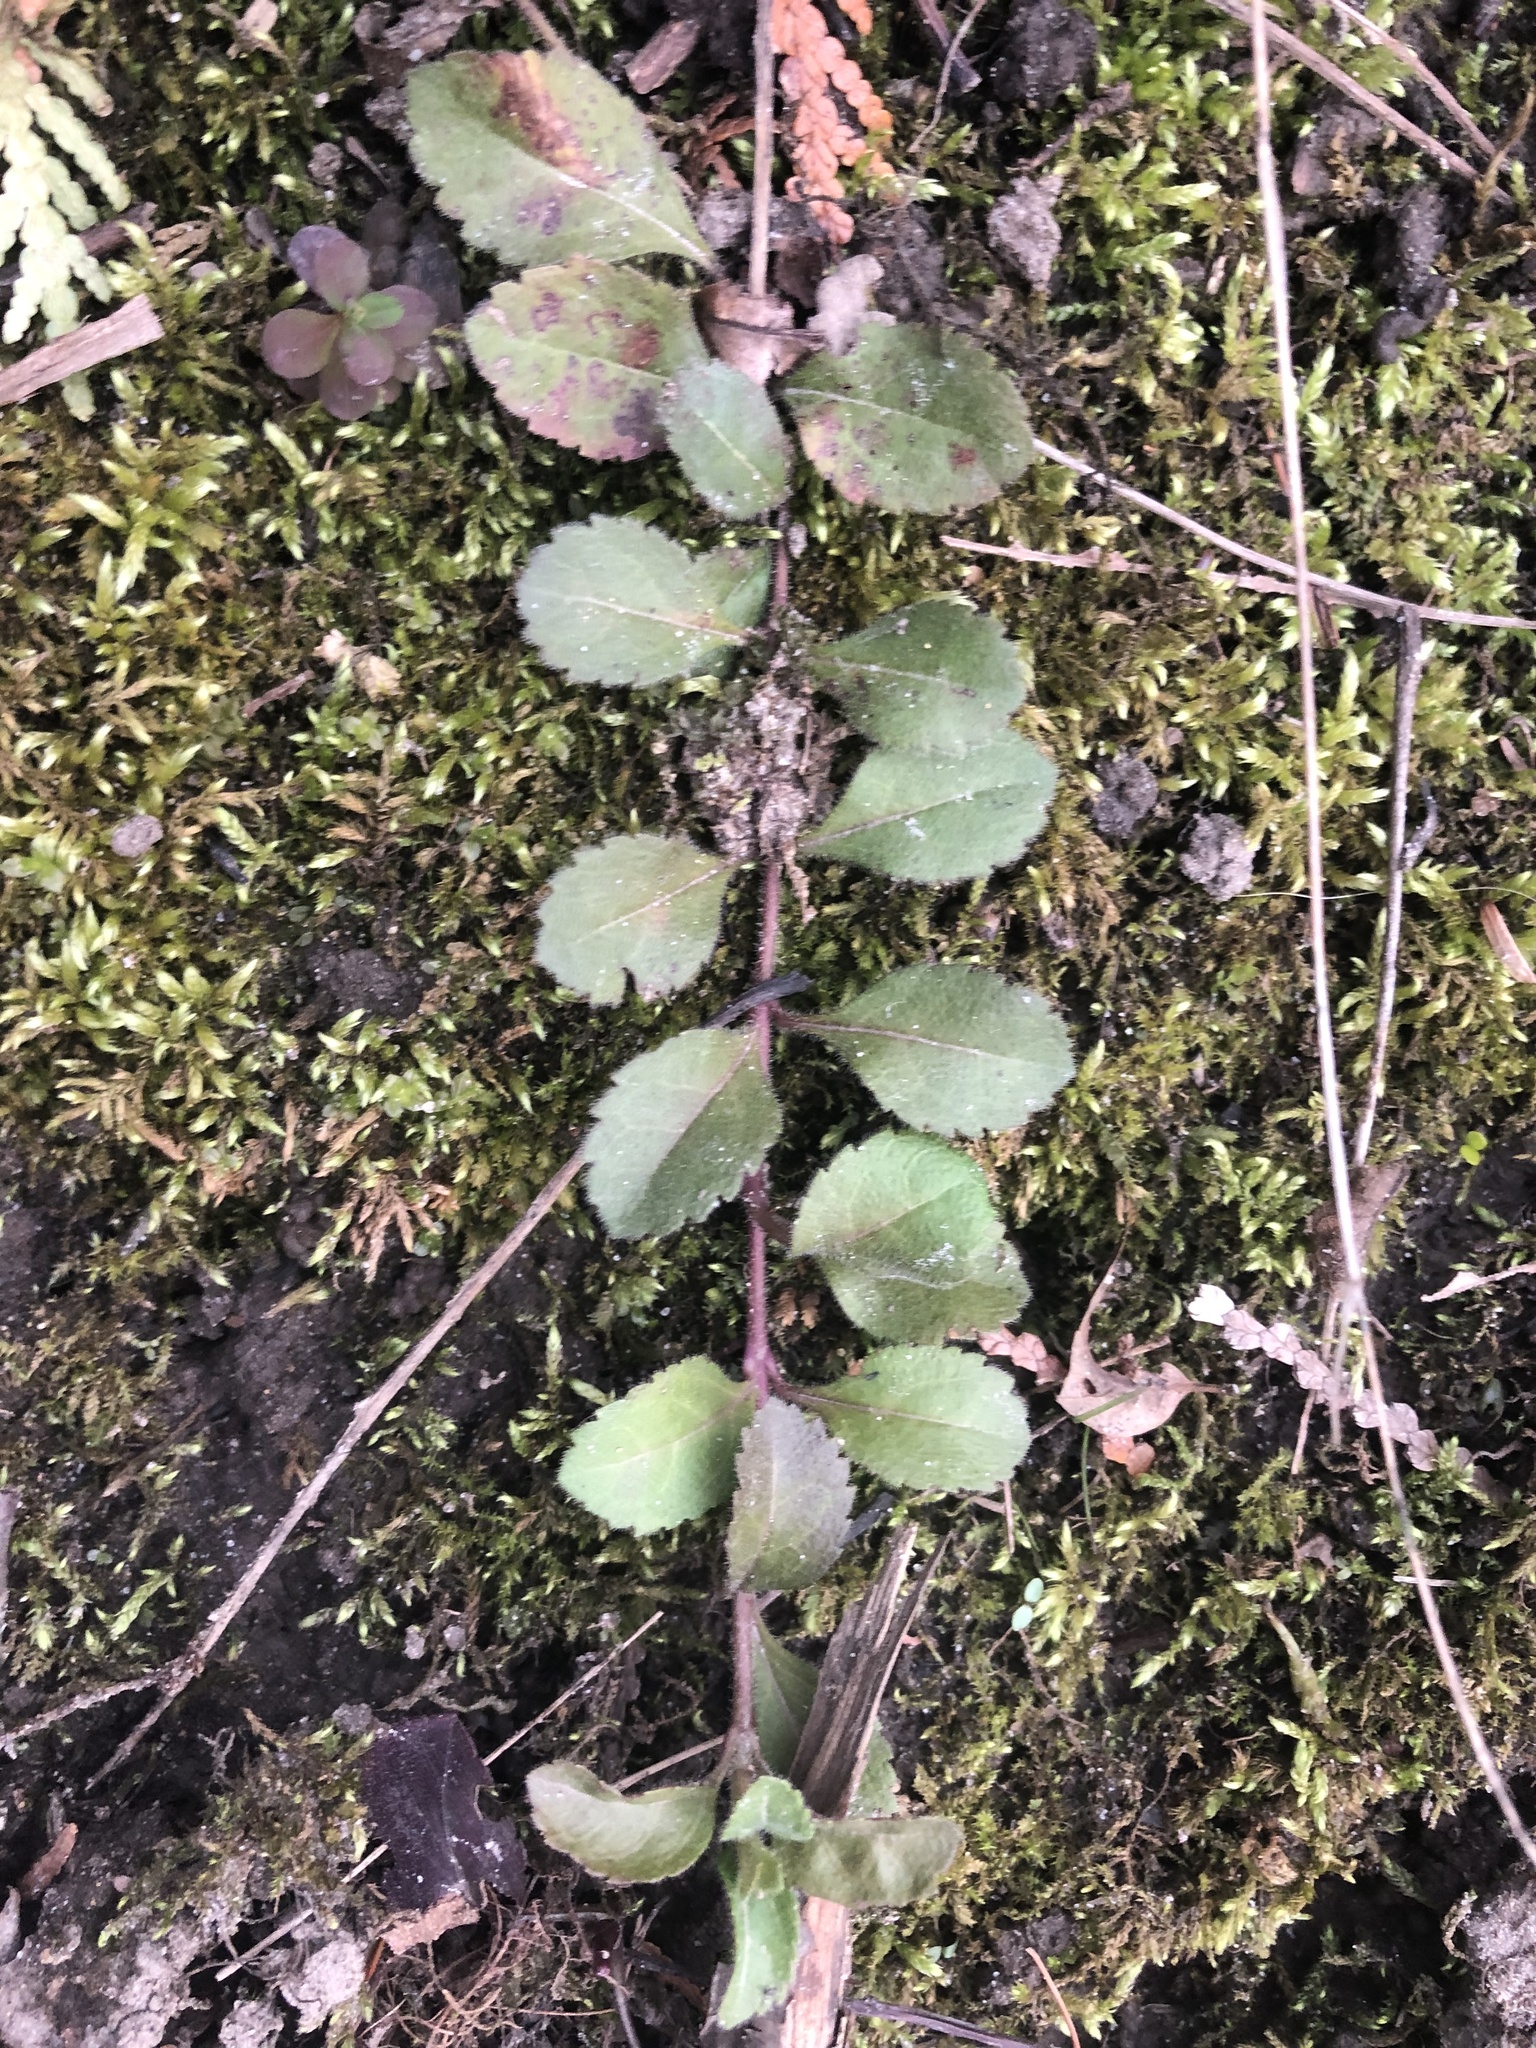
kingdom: Plantae
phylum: Tracheophyta
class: Magnoliopsida
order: Lamiales
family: Plantaginaceae
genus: Veronica
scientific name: Veronica officinalis
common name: Common speedwell
